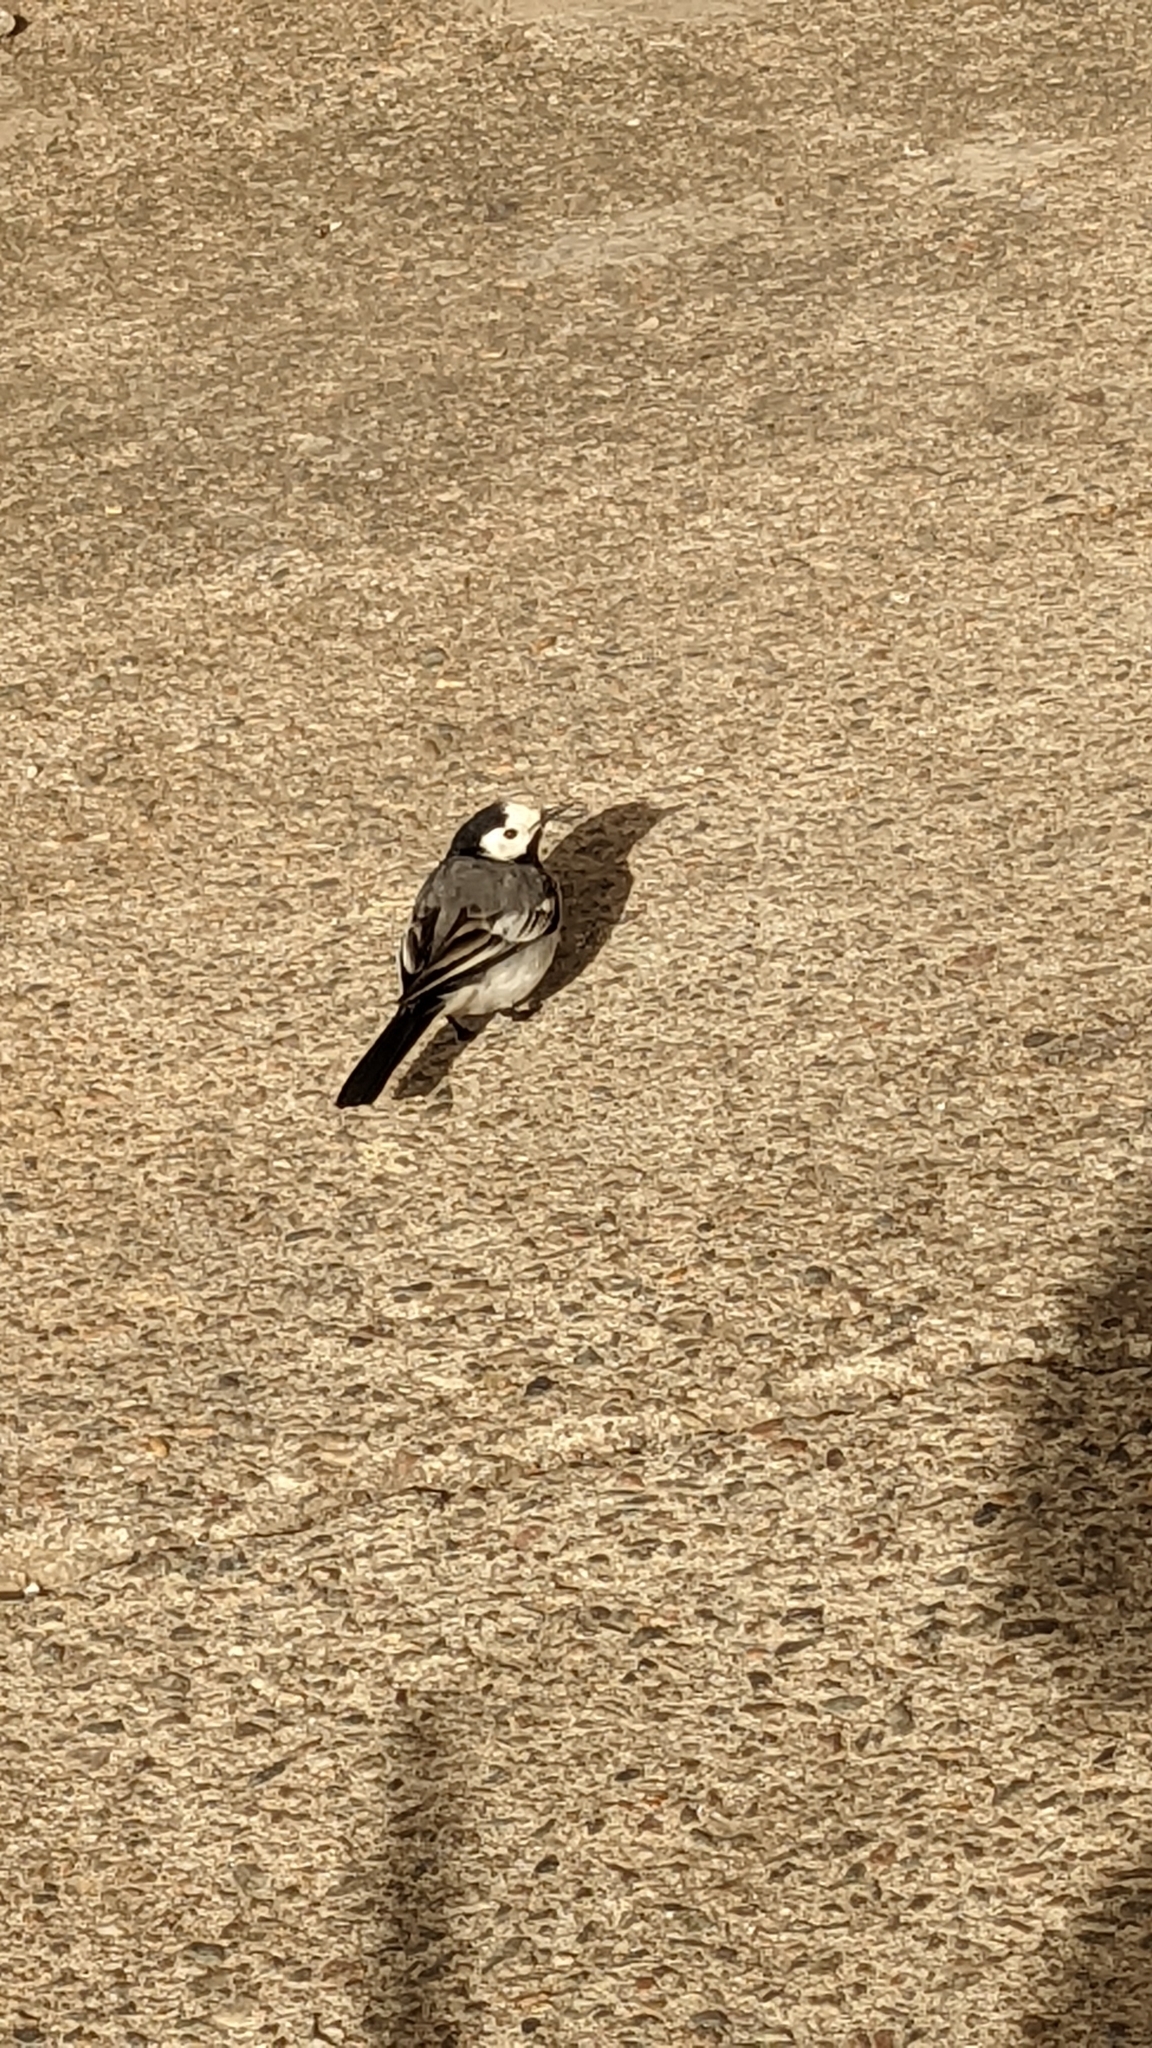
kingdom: Animalia
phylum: Chordata
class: Aves
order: Passeriformes
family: Motacillidae
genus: Motacilla
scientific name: Motacilla alba
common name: White wagtail
